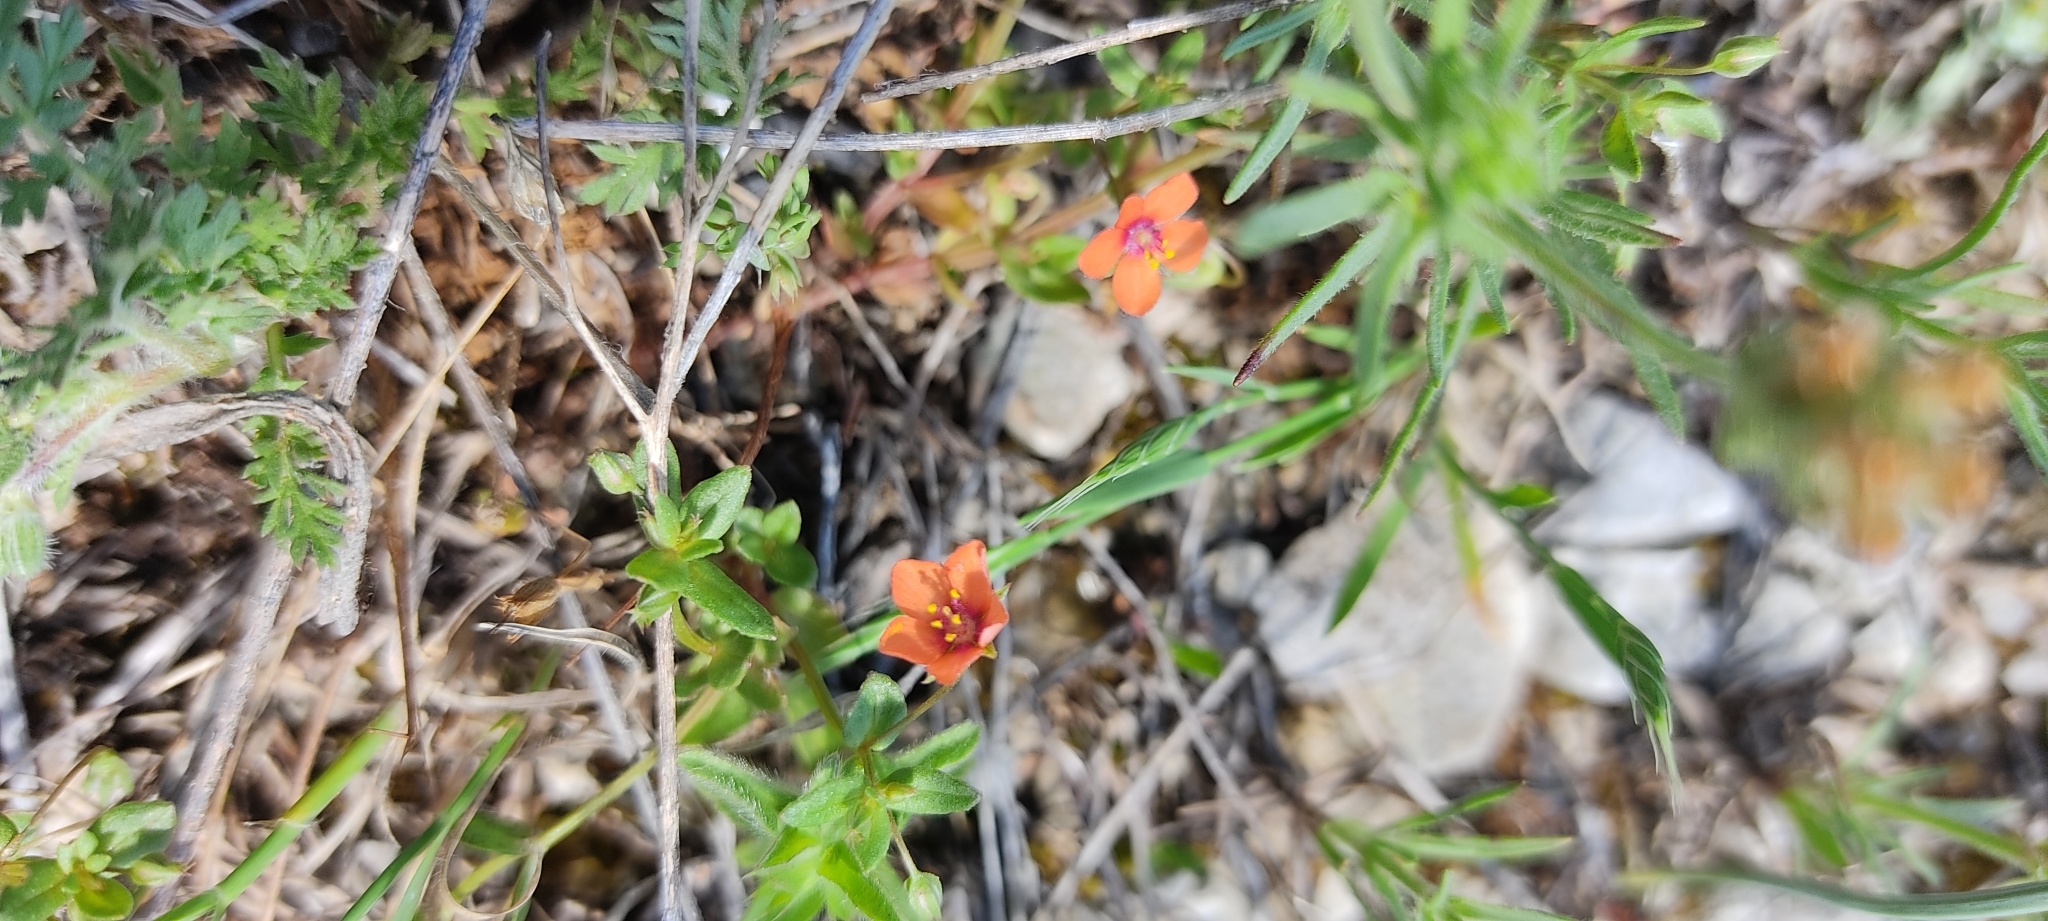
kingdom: Plantae
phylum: Tracheophyta
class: Magnoliopsida
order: Ericales
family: Primulaceae
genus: Lysimachia
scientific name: Lysimachia arvensis
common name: Scarlet pimpernel
